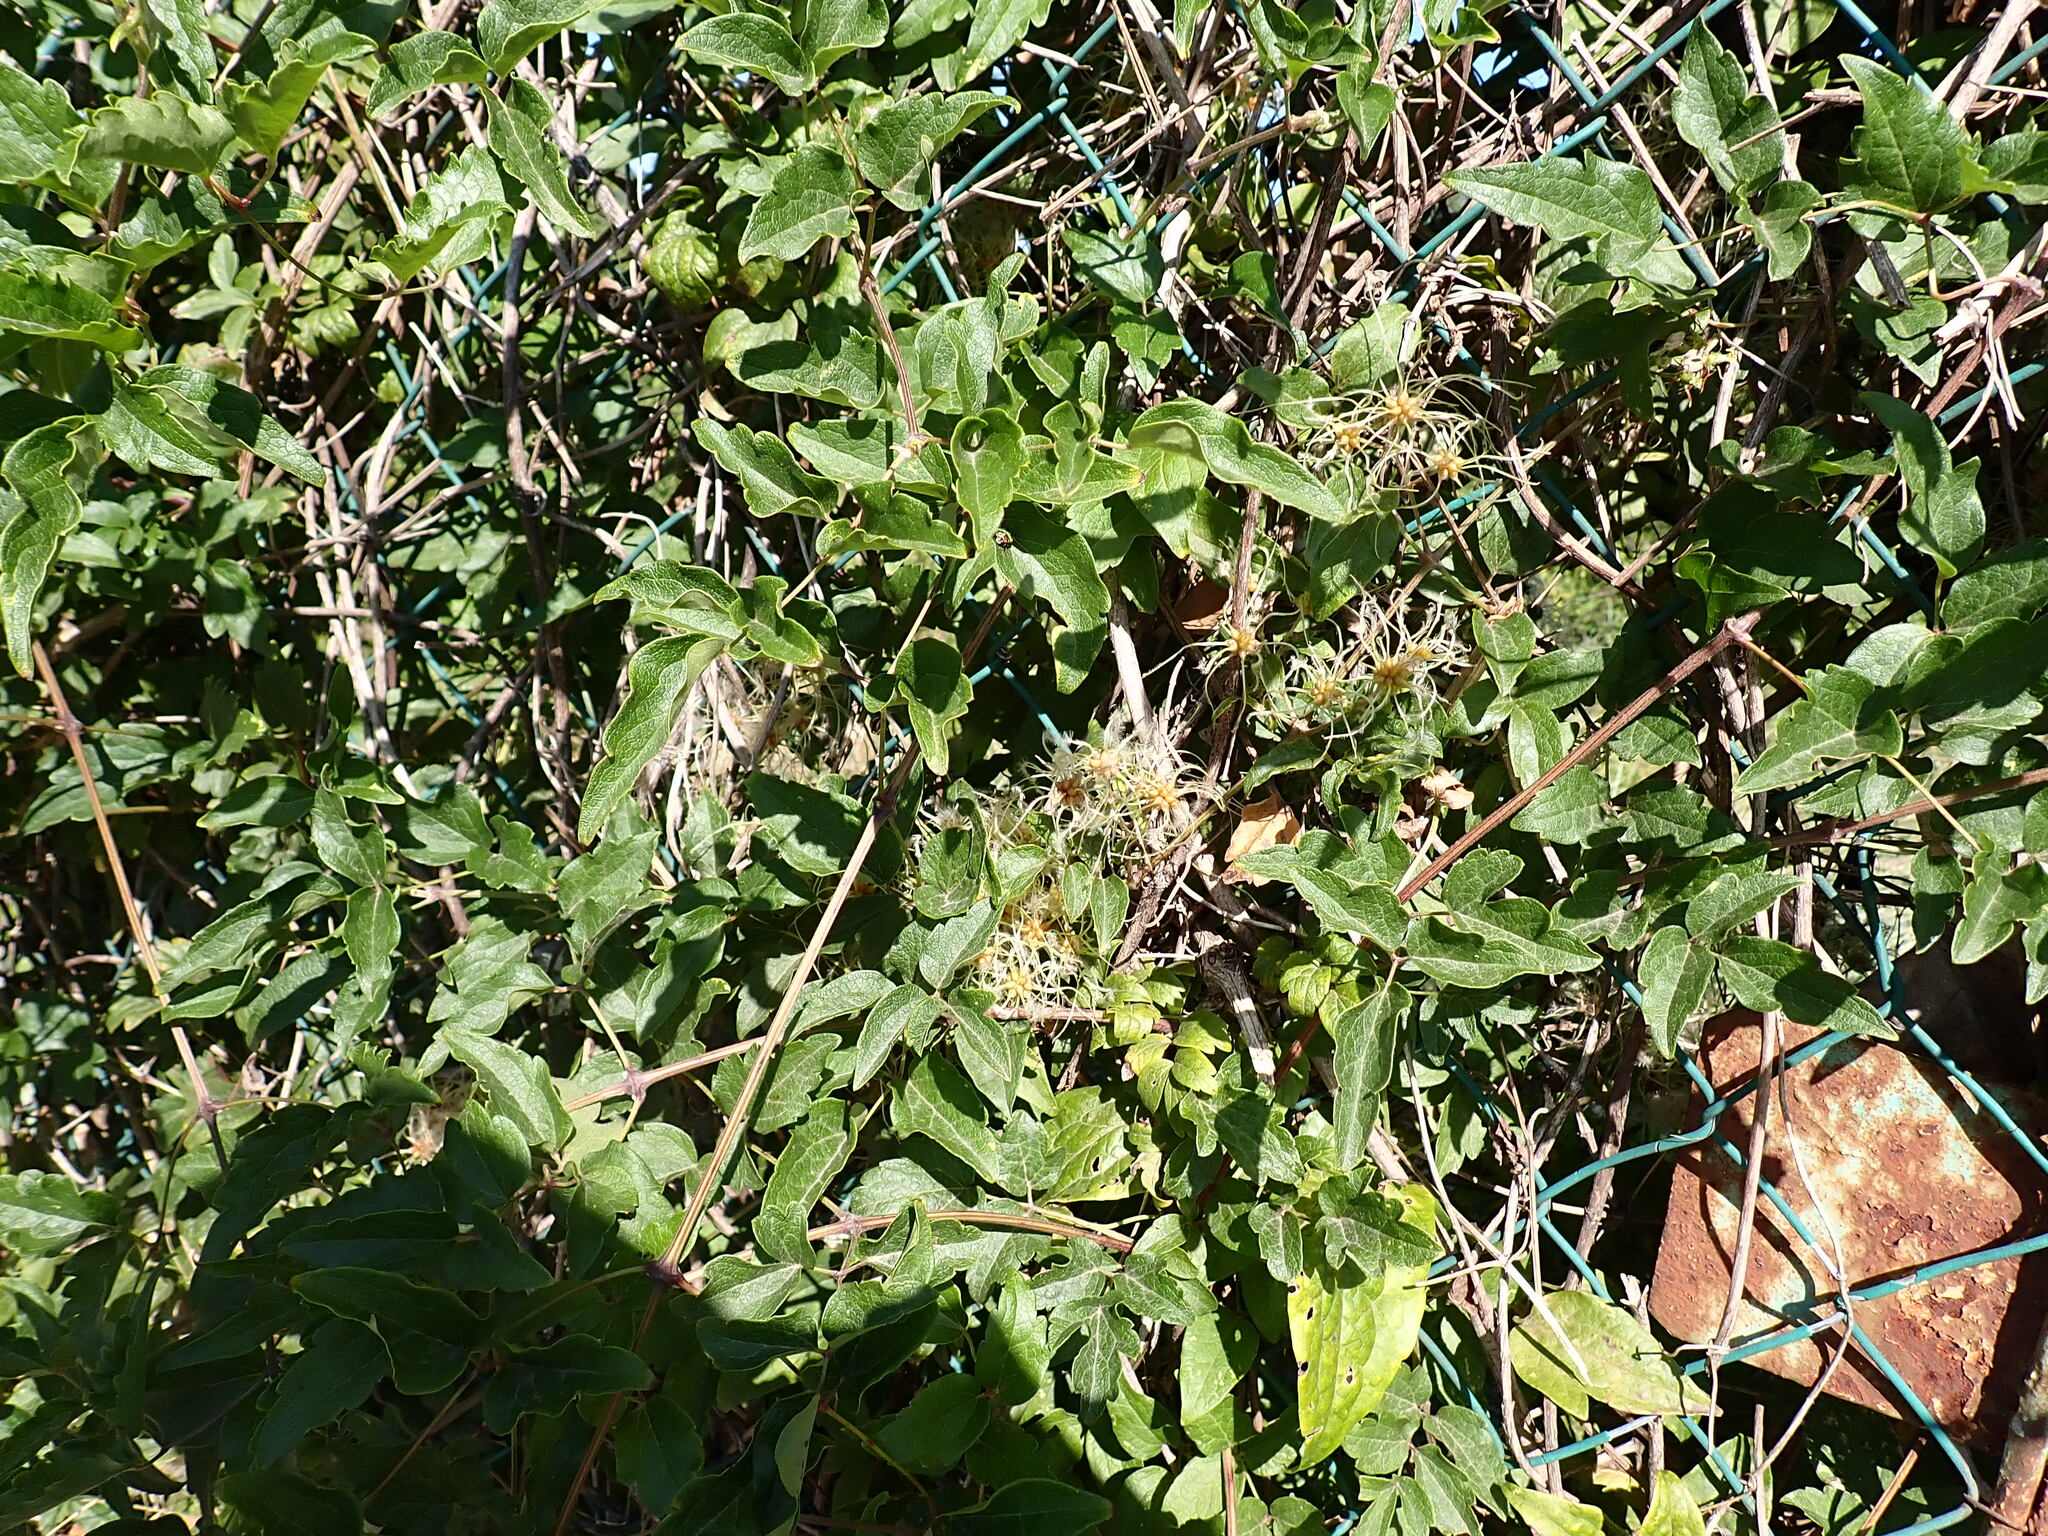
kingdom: Plantae
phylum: Tracheophyta
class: Magnoliopsida
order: Ranunculales
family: Ranunculaceae
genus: Clematis
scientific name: Clematis vitalba
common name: Evergreen clematis
